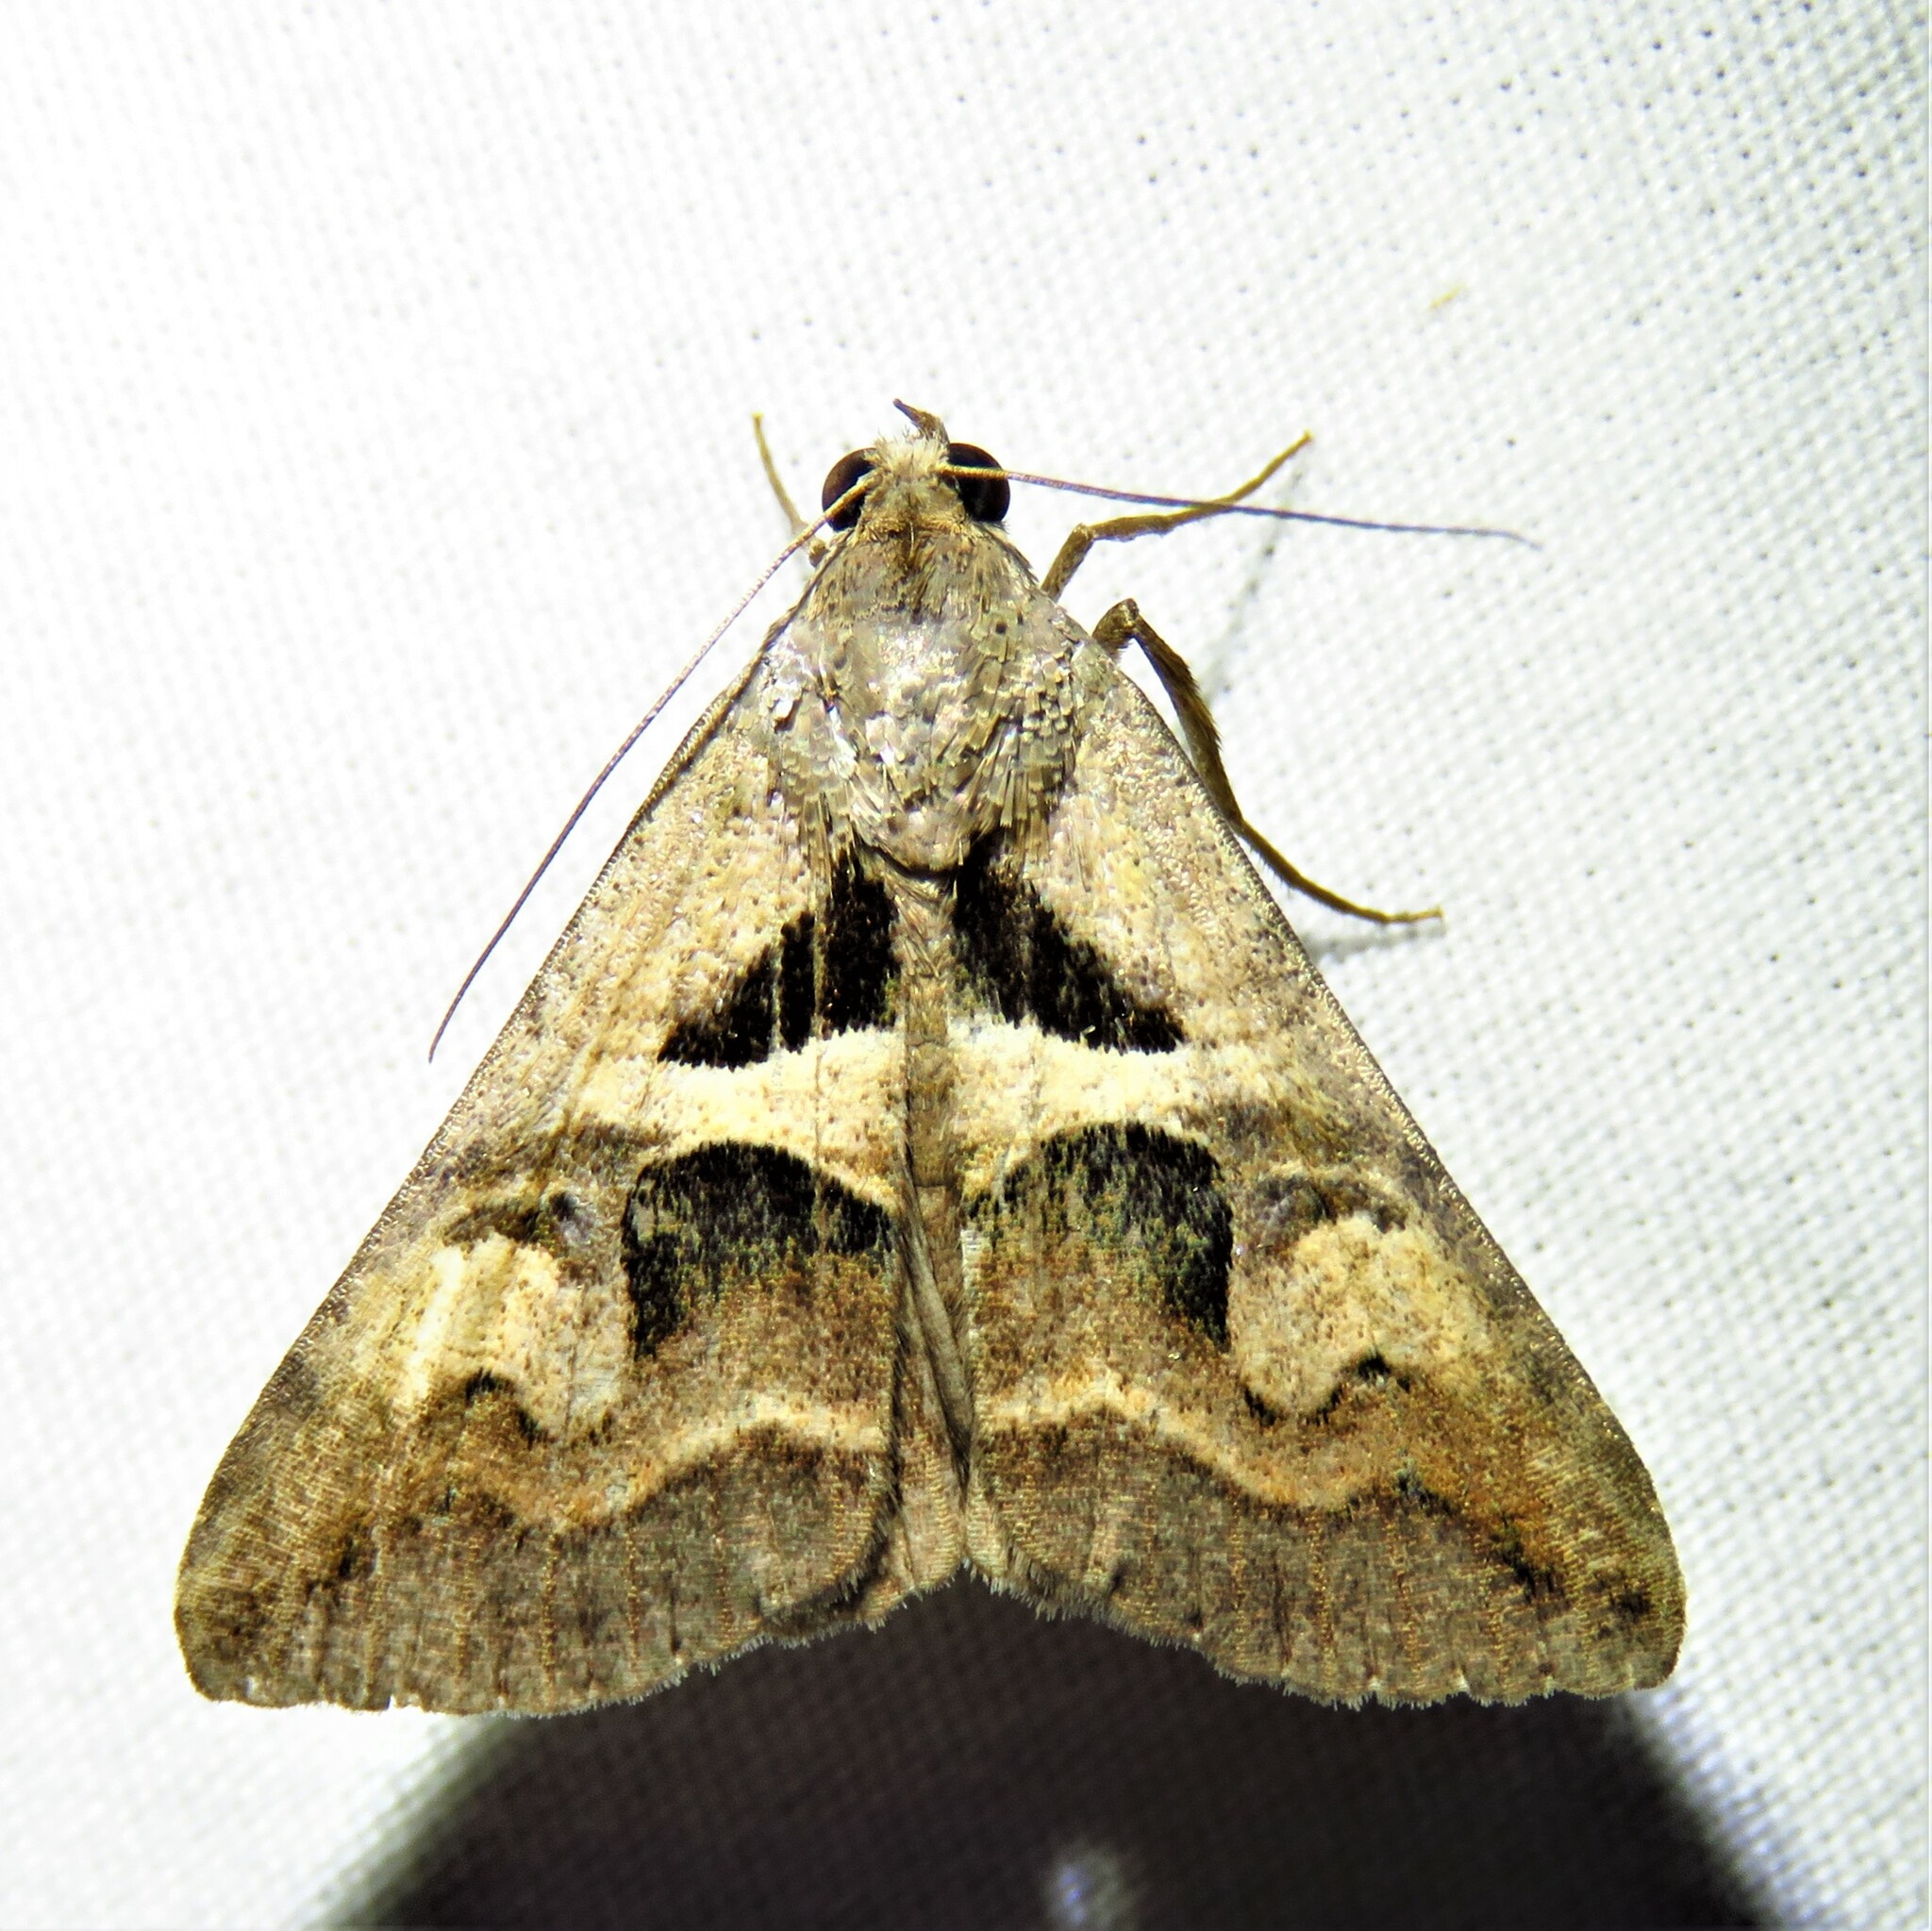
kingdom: Animalia
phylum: Arthropoda
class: Insecta
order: Lepidoptera
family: Erebidae
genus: Melipotis
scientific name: Melipotis cellaris
